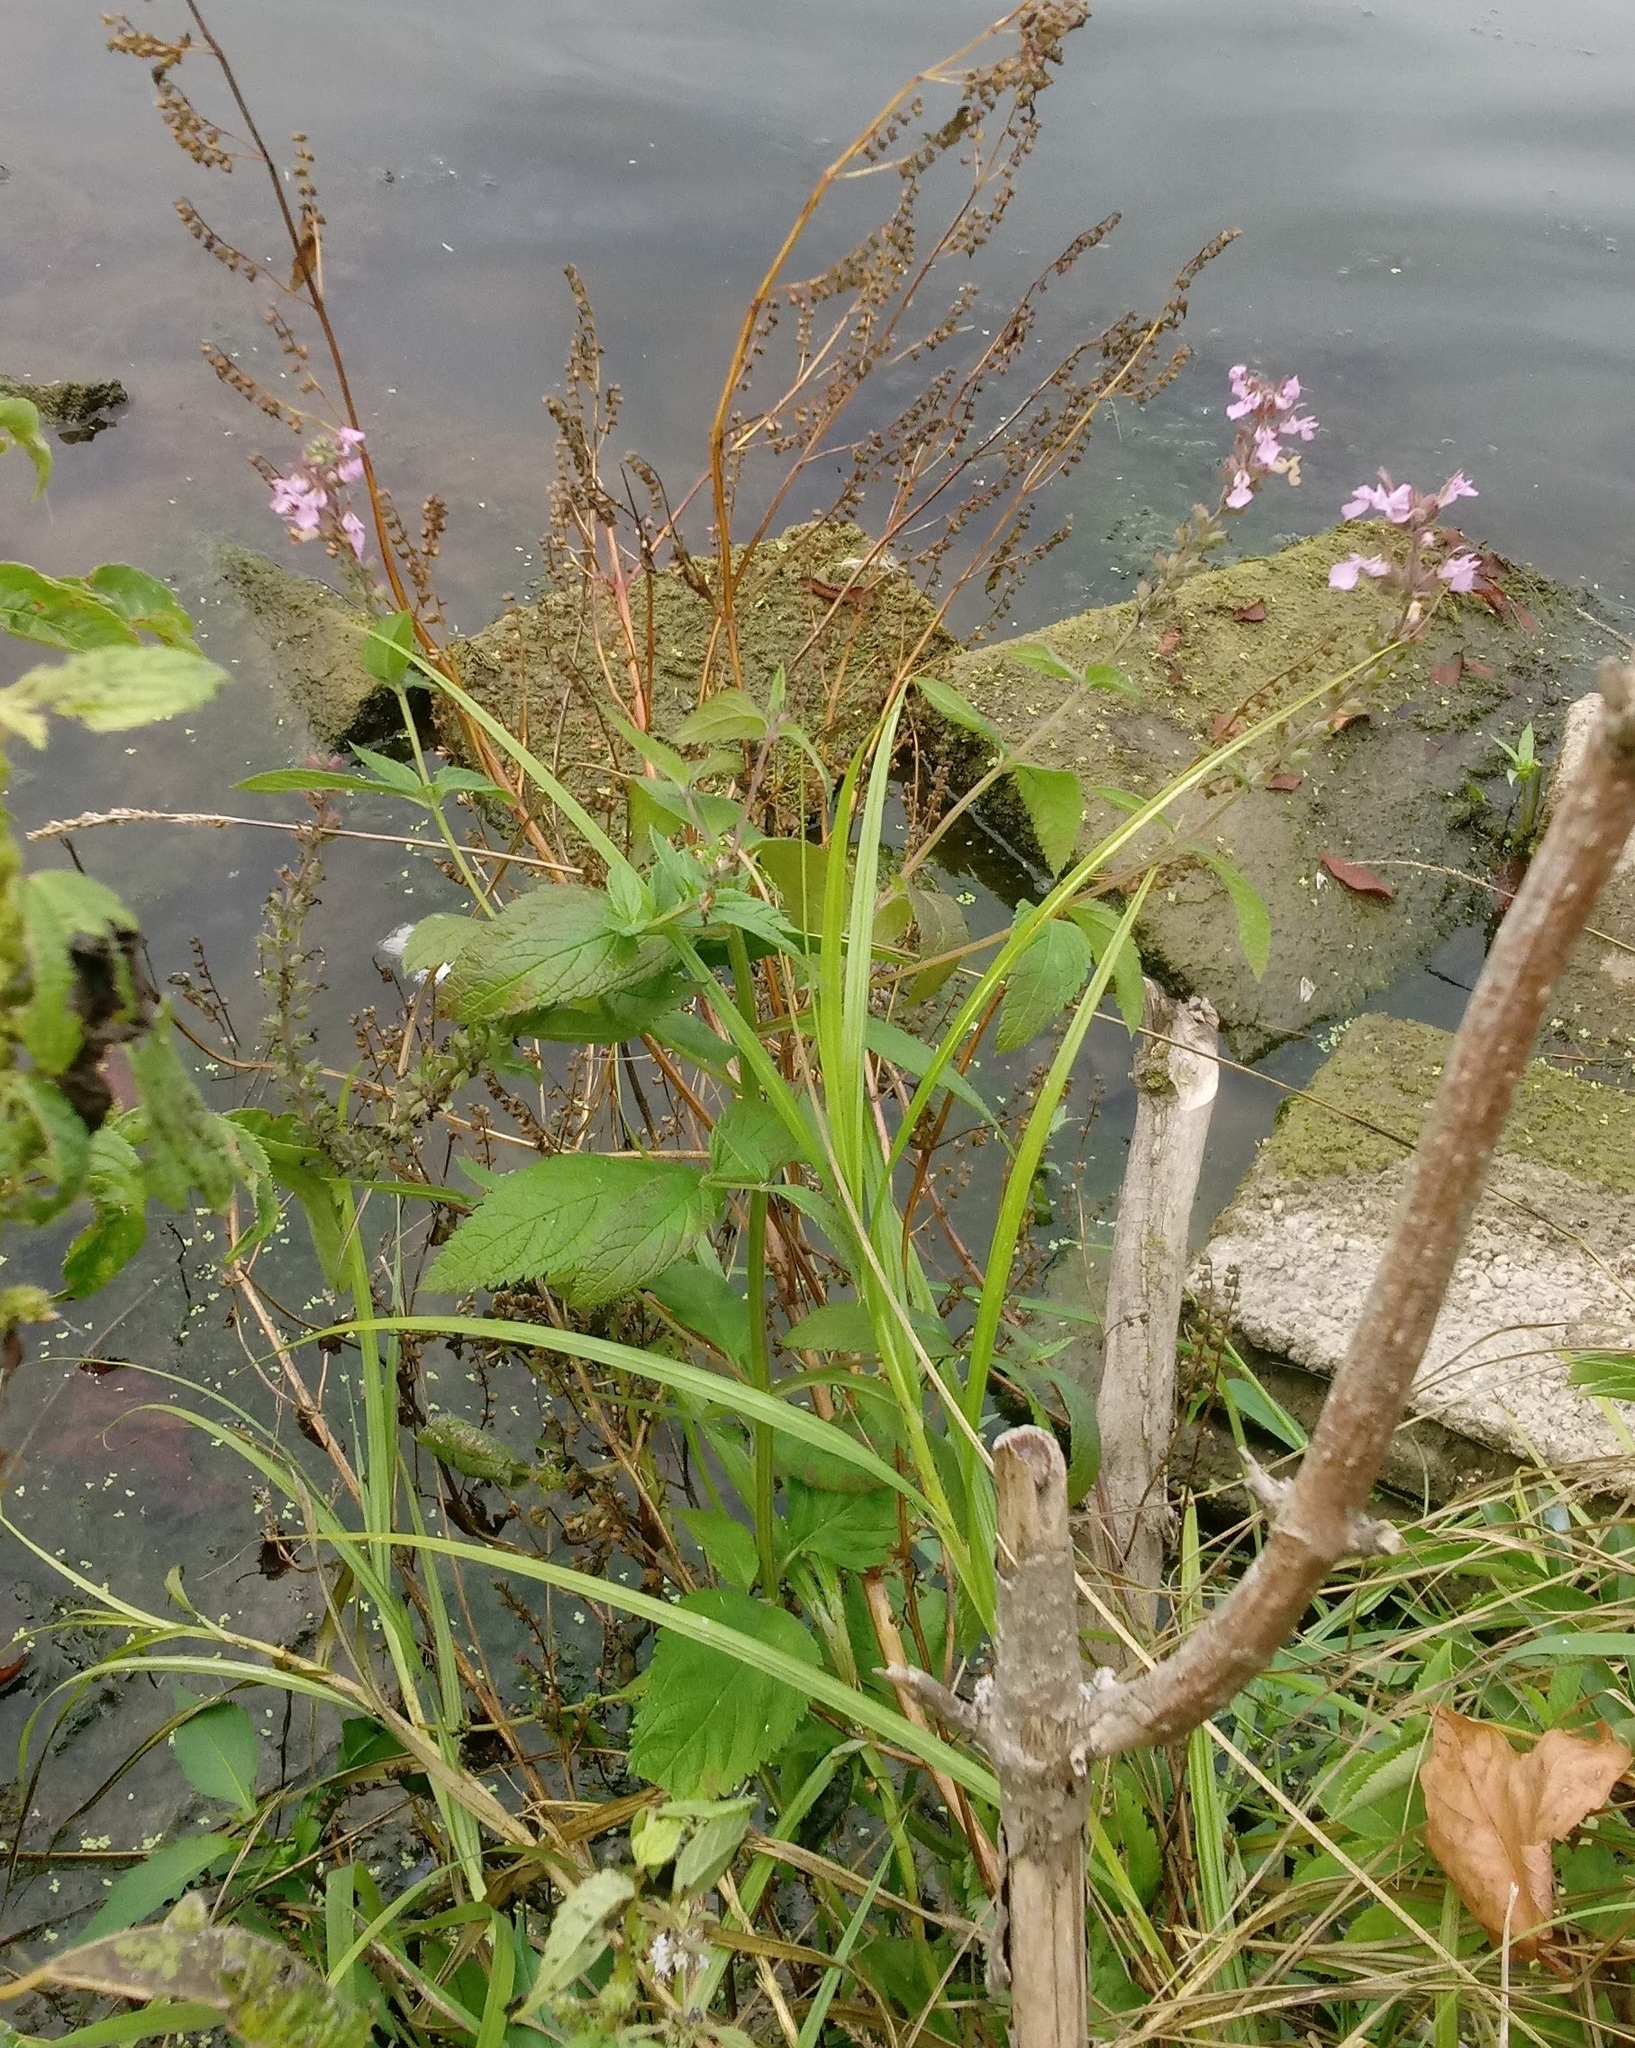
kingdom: Plantae
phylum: Tracheophyta
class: Magnoliopsida
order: Lamiales
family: Lamiaceae
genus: Scutellaria
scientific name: Scutellaria lateriflora
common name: Blue skullcap
